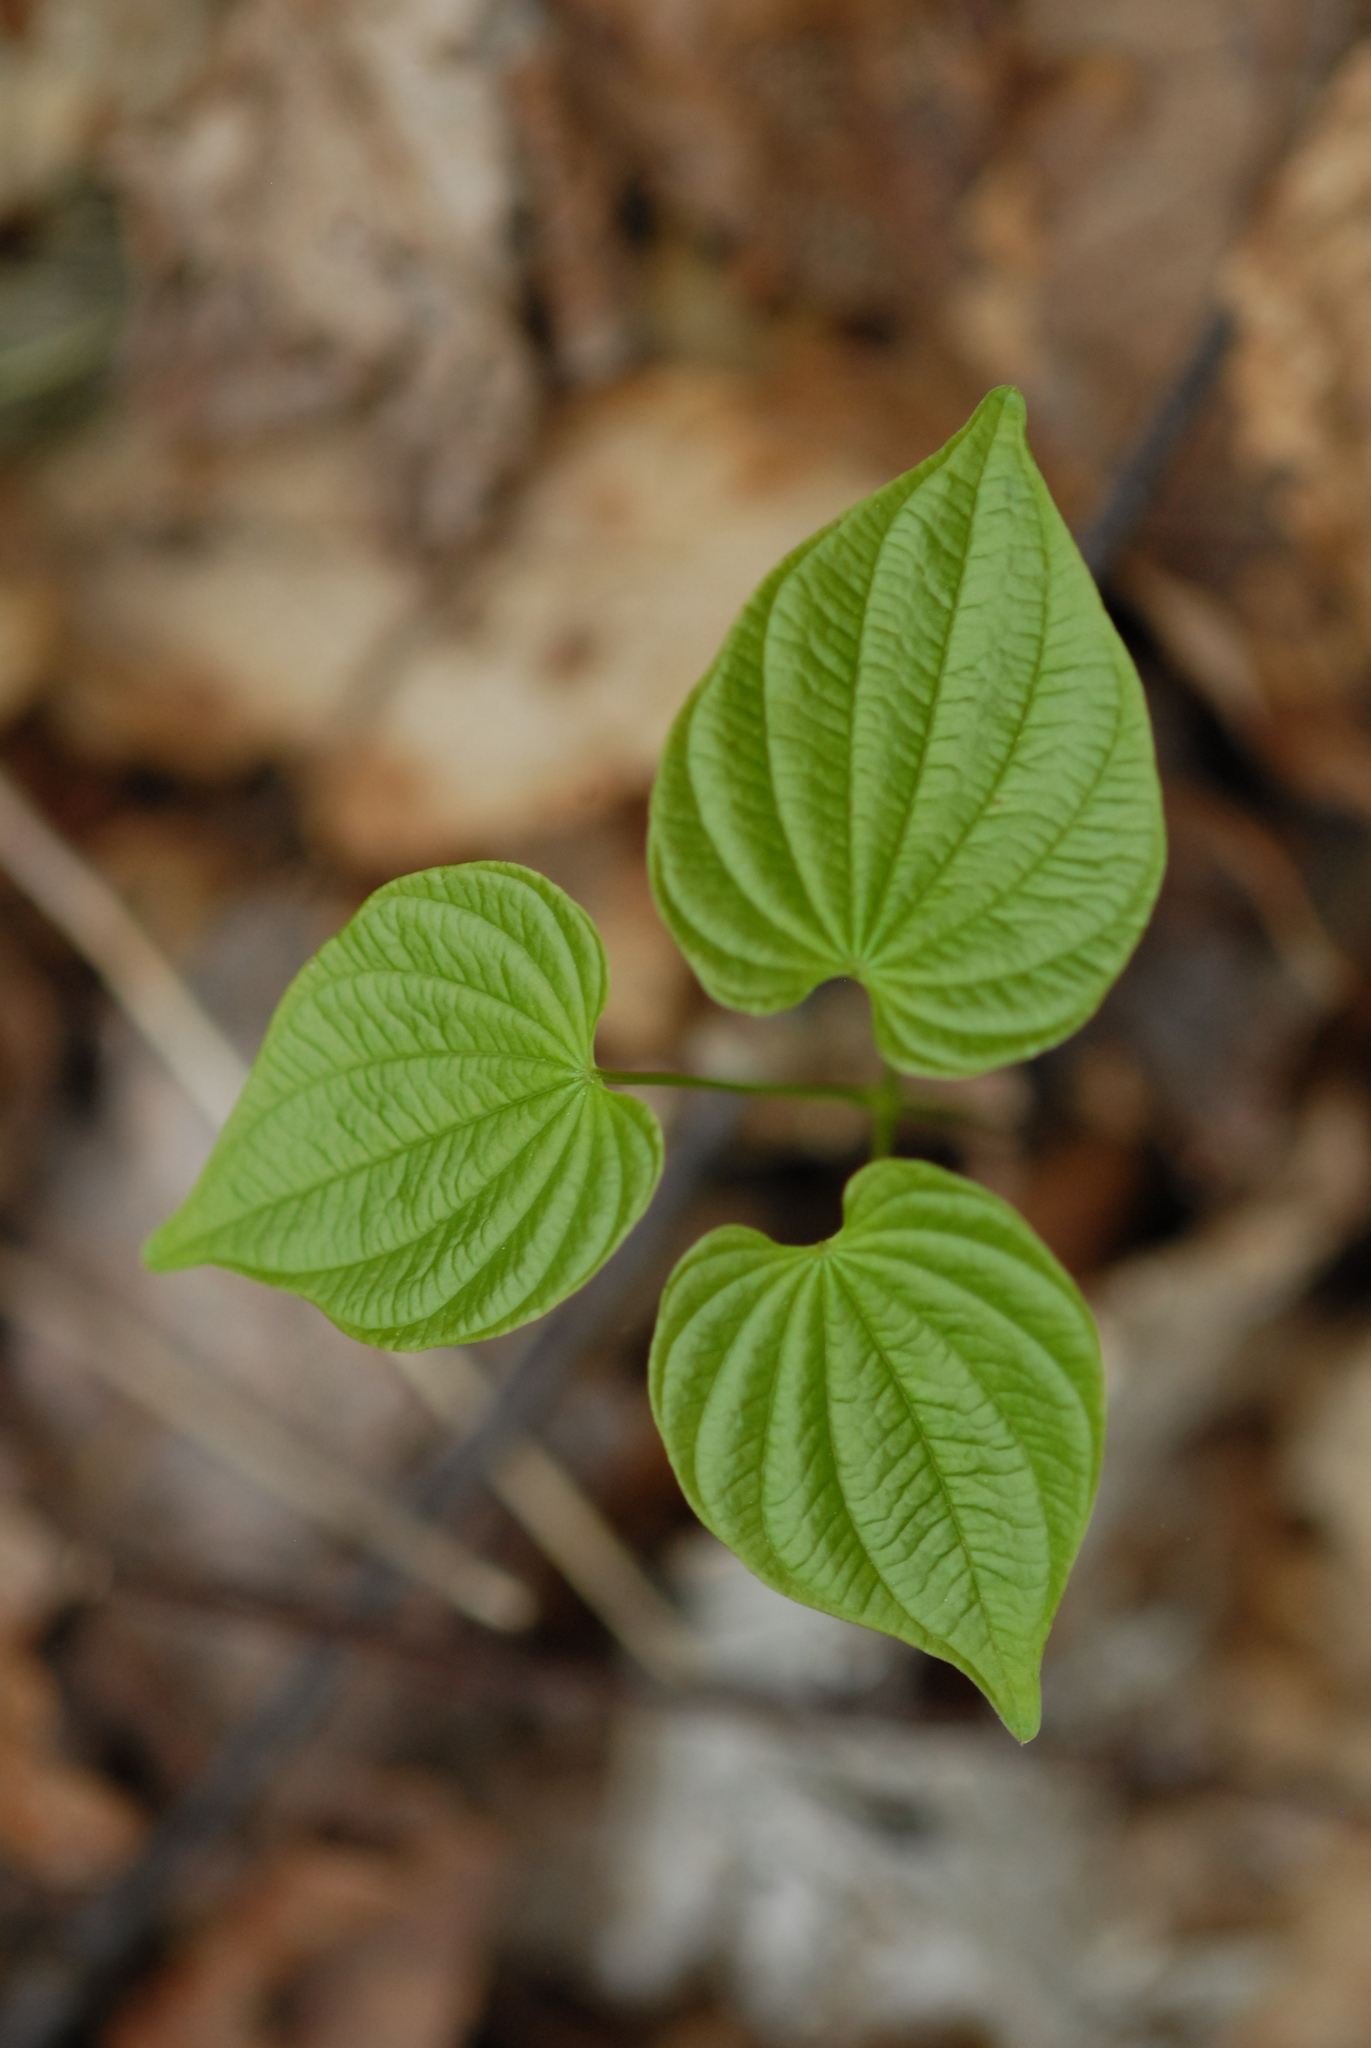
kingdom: Plantae
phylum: Tracheophyta
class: Liliopsida
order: Dioscoreales
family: Dioscoreaceae
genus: Dioscorea
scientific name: Dioscorea villosa
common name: Wild yam
